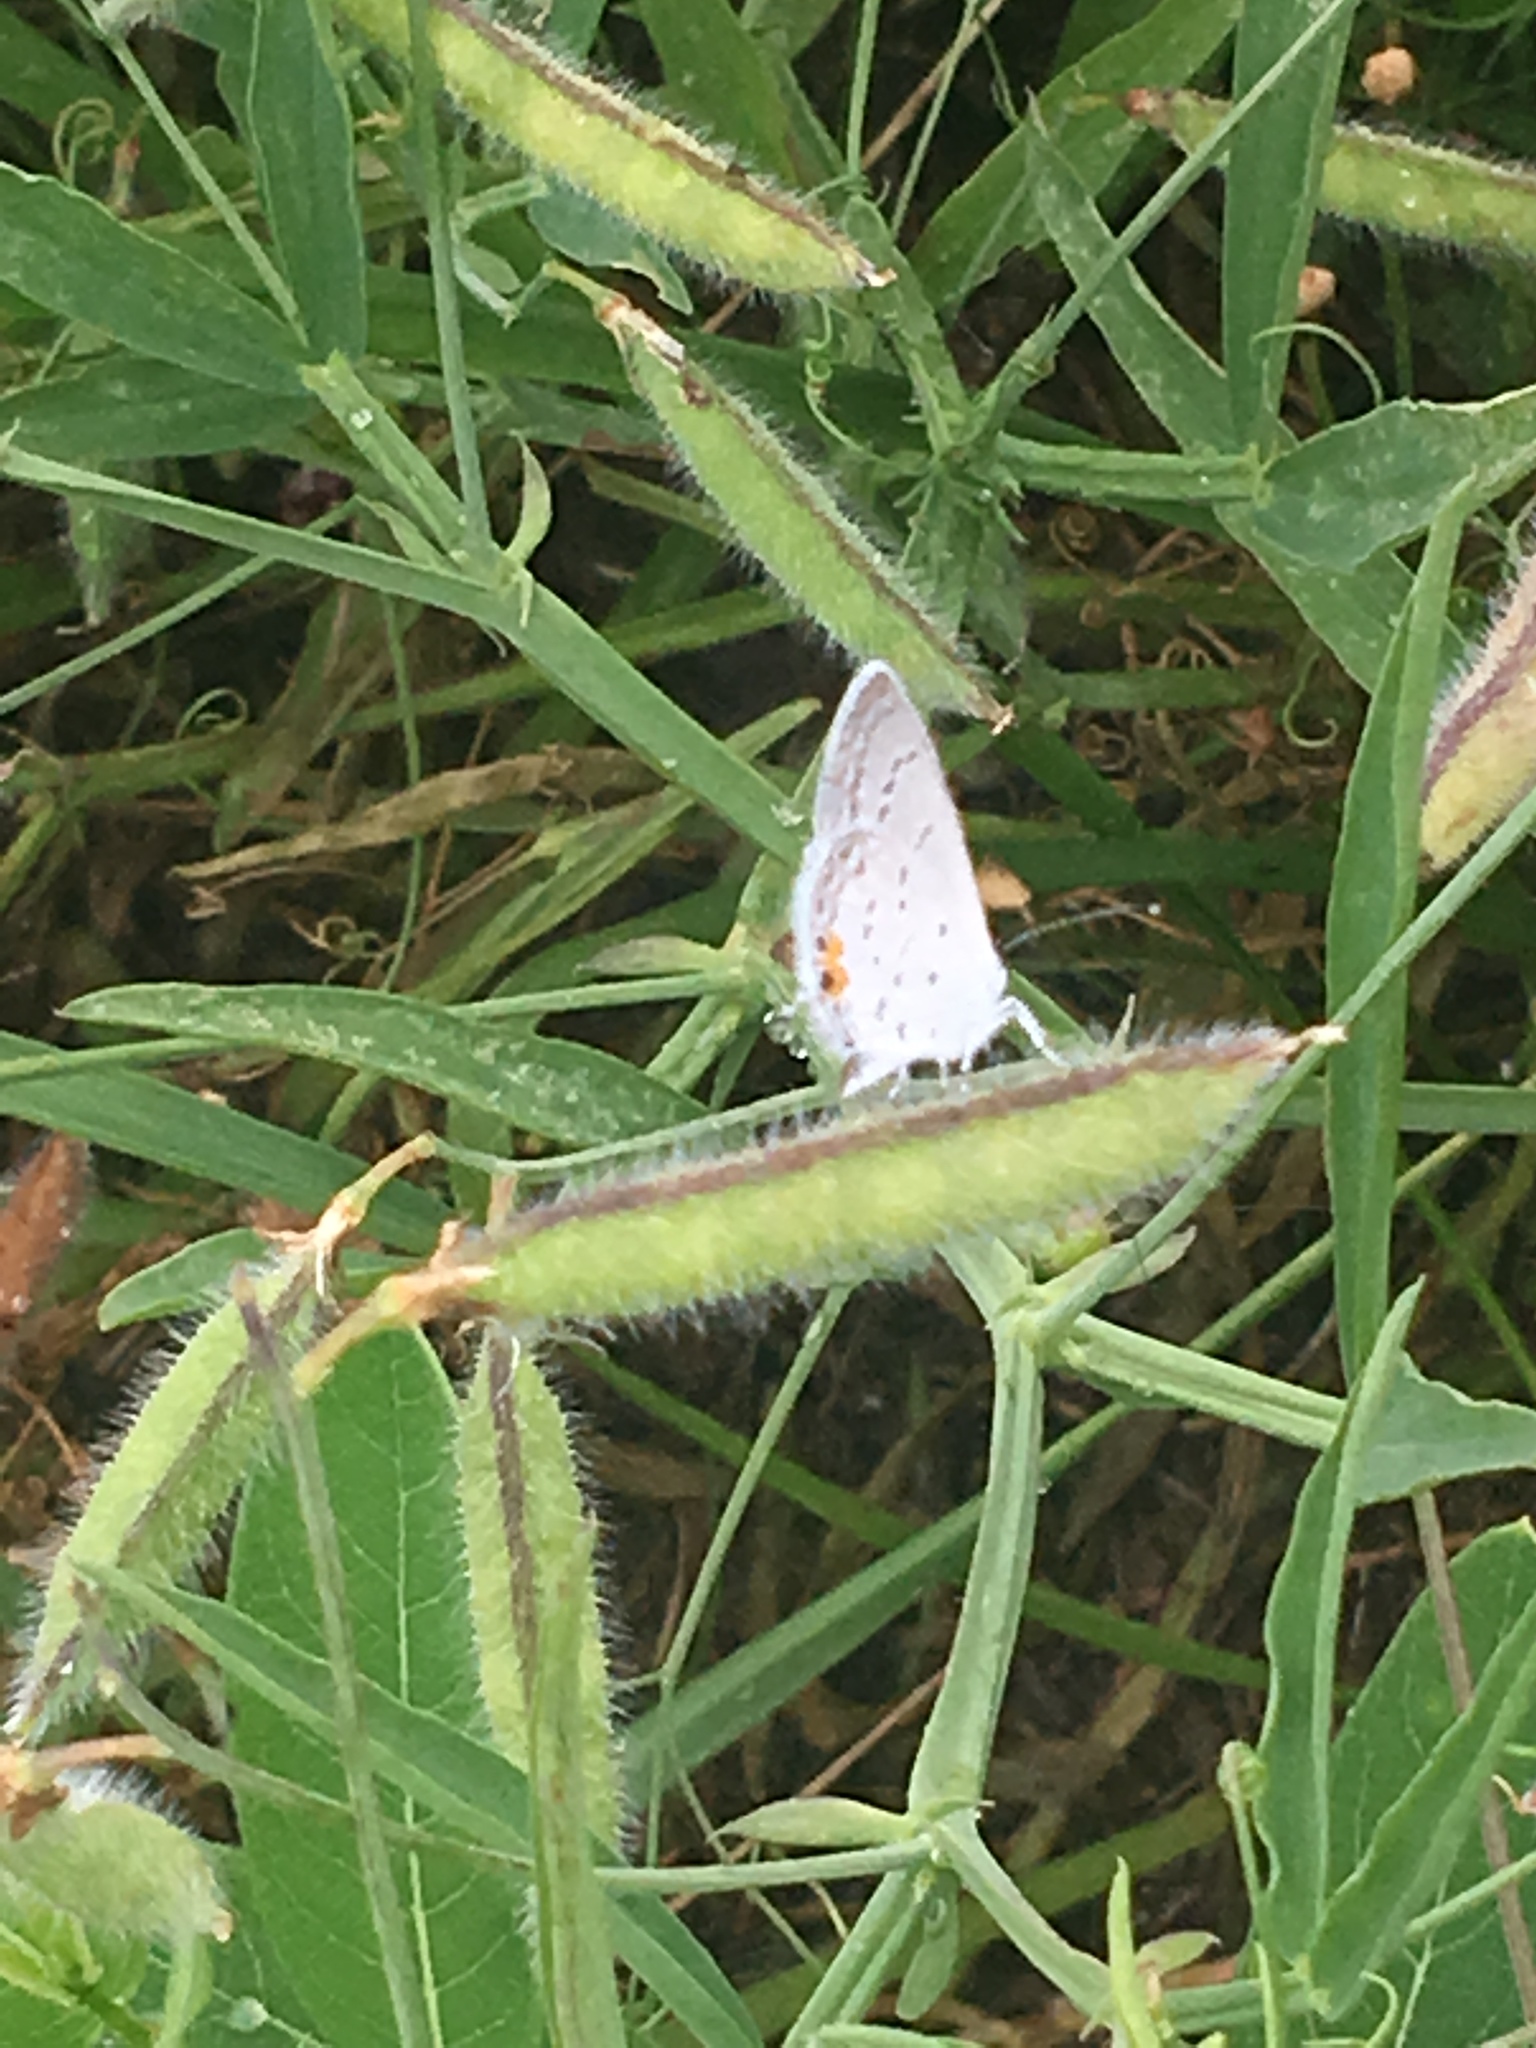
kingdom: Animalia
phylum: Arthropoda
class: Insecta
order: Lepidoptera
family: Lycaenidae
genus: Elkalyce
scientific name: Elkalyce comyntas
